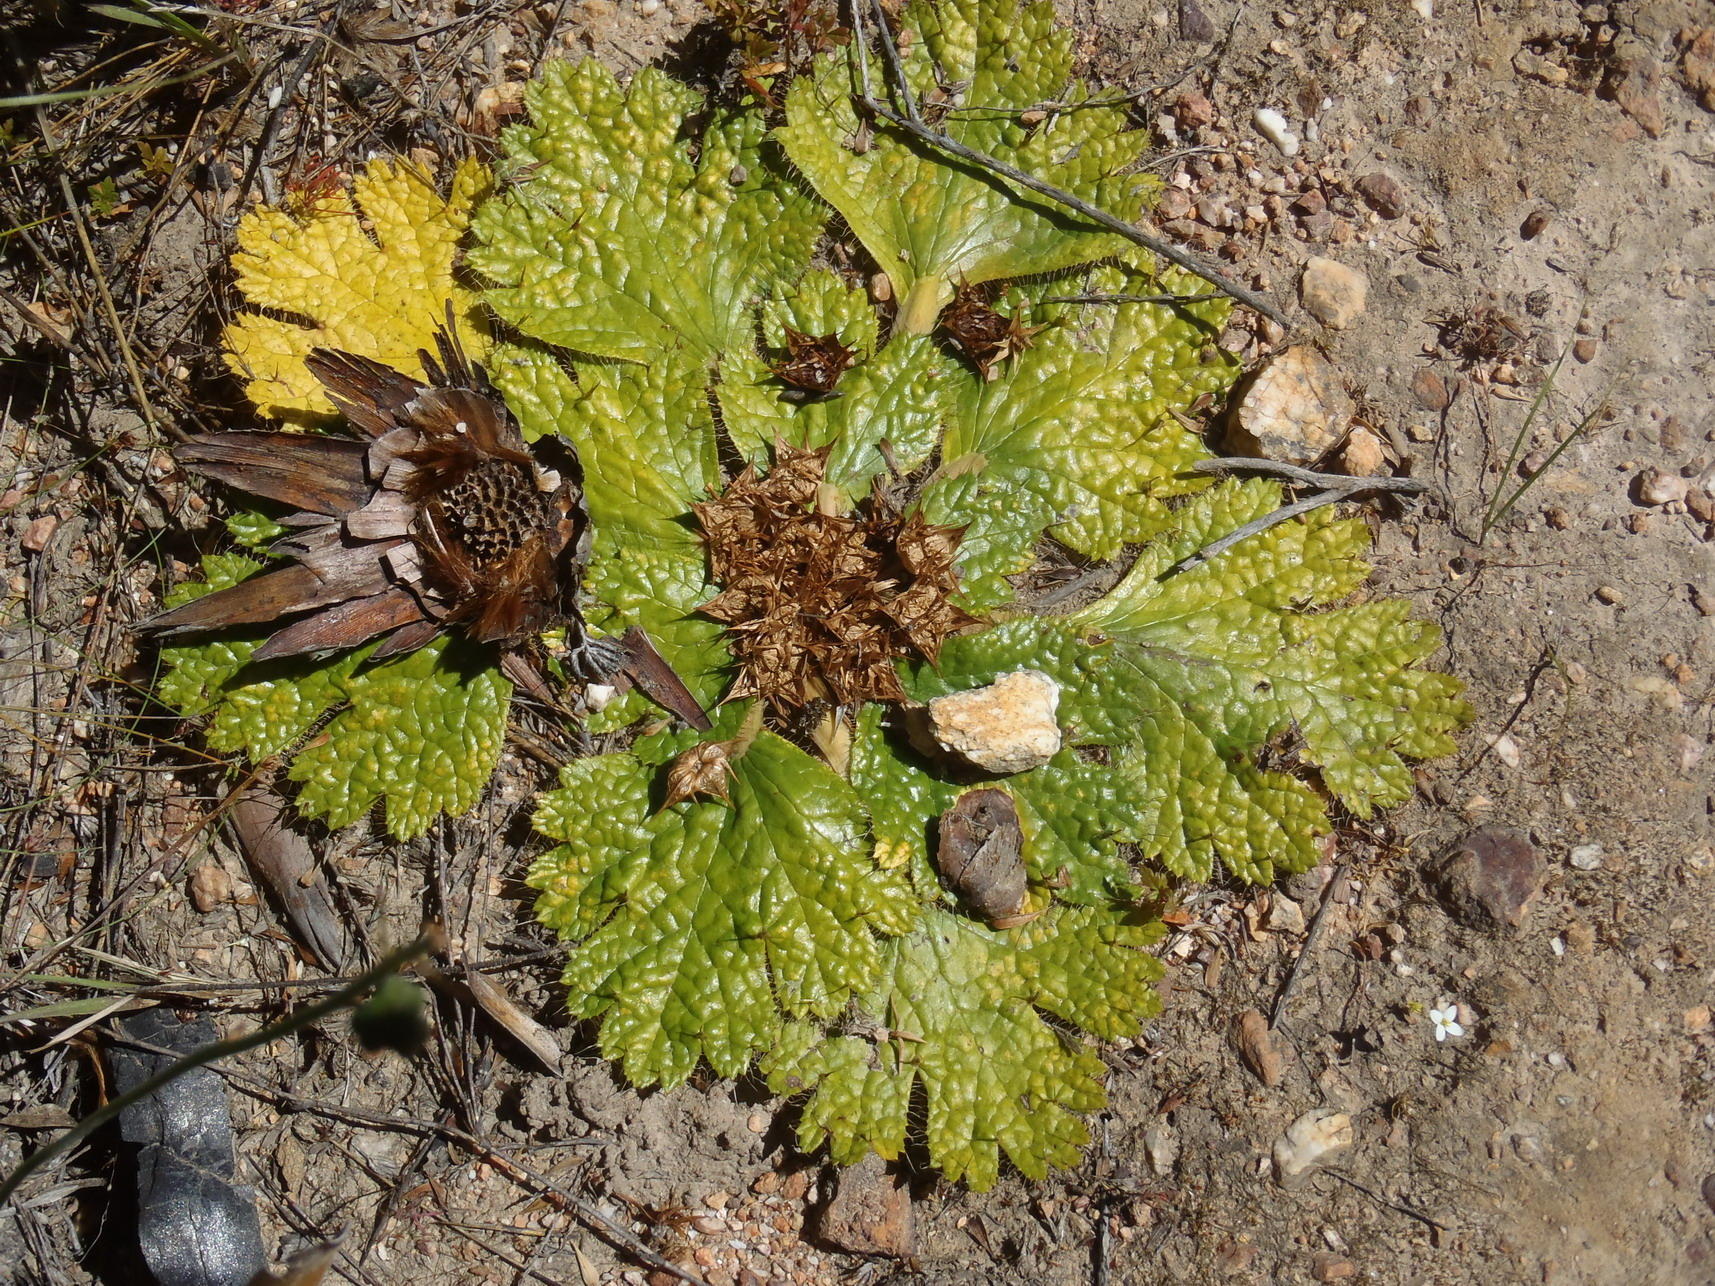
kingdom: Plantae
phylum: Tracheophyta
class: Magnoliopsida
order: Apiales
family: Apiaceae
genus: Arctopus
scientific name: Arctopus echinatus
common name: Platdoring
